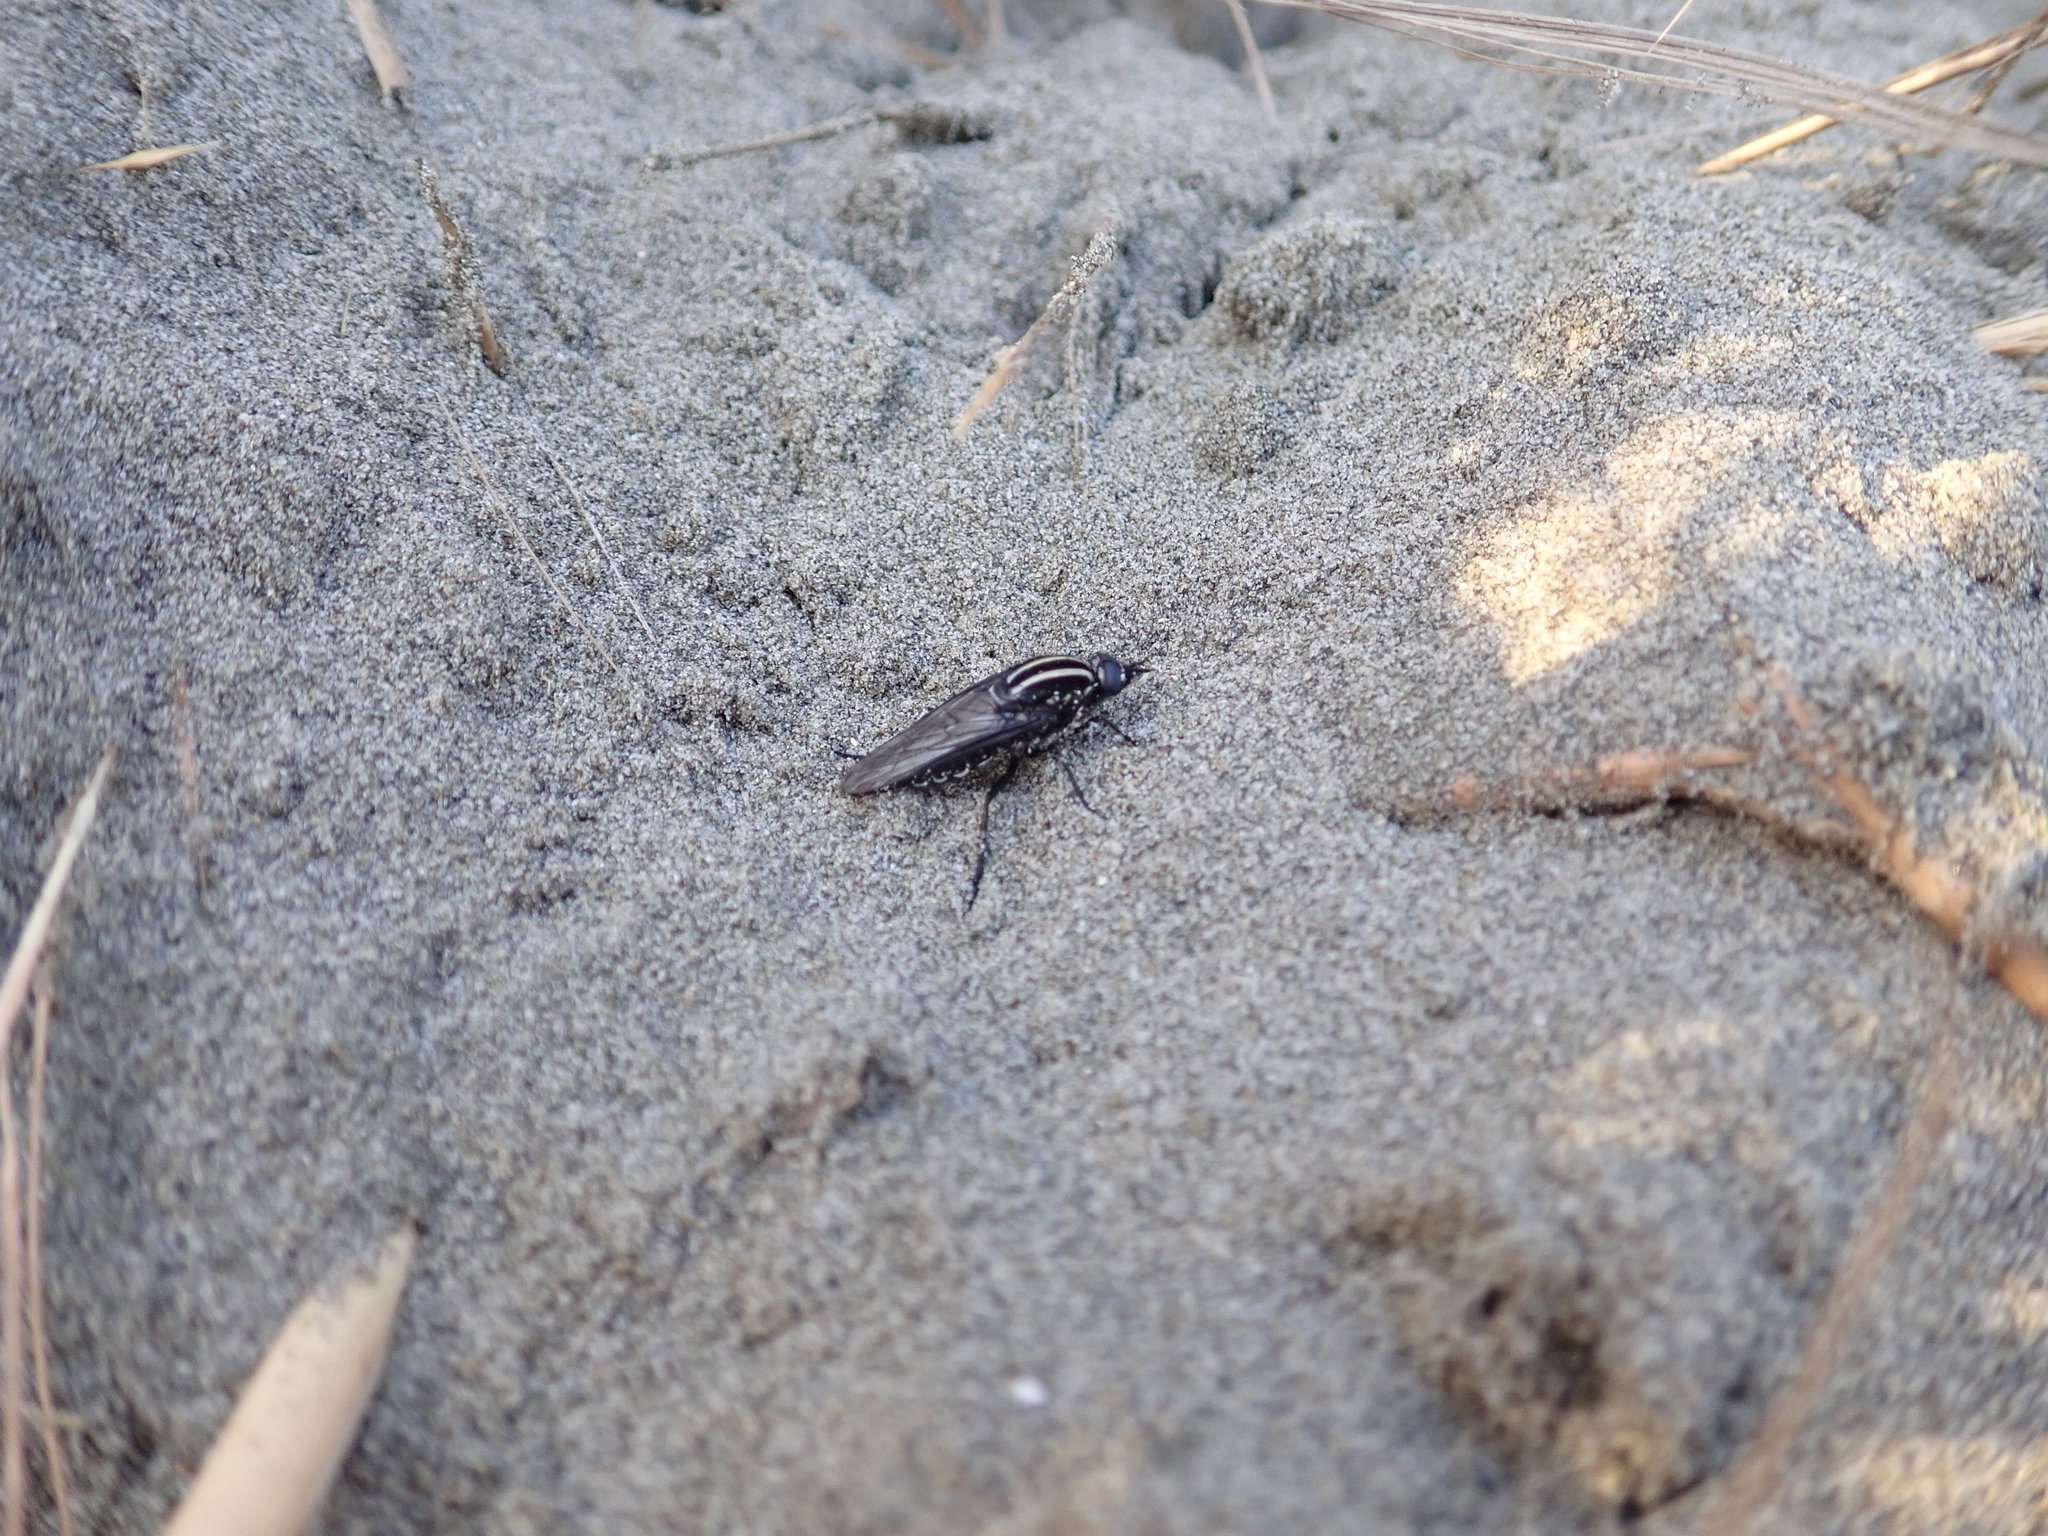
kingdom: Animalia
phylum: Arthropoda
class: Insecta
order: Diptera
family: Therevidae
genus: Megathereva
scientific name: Megathereva atritibia
